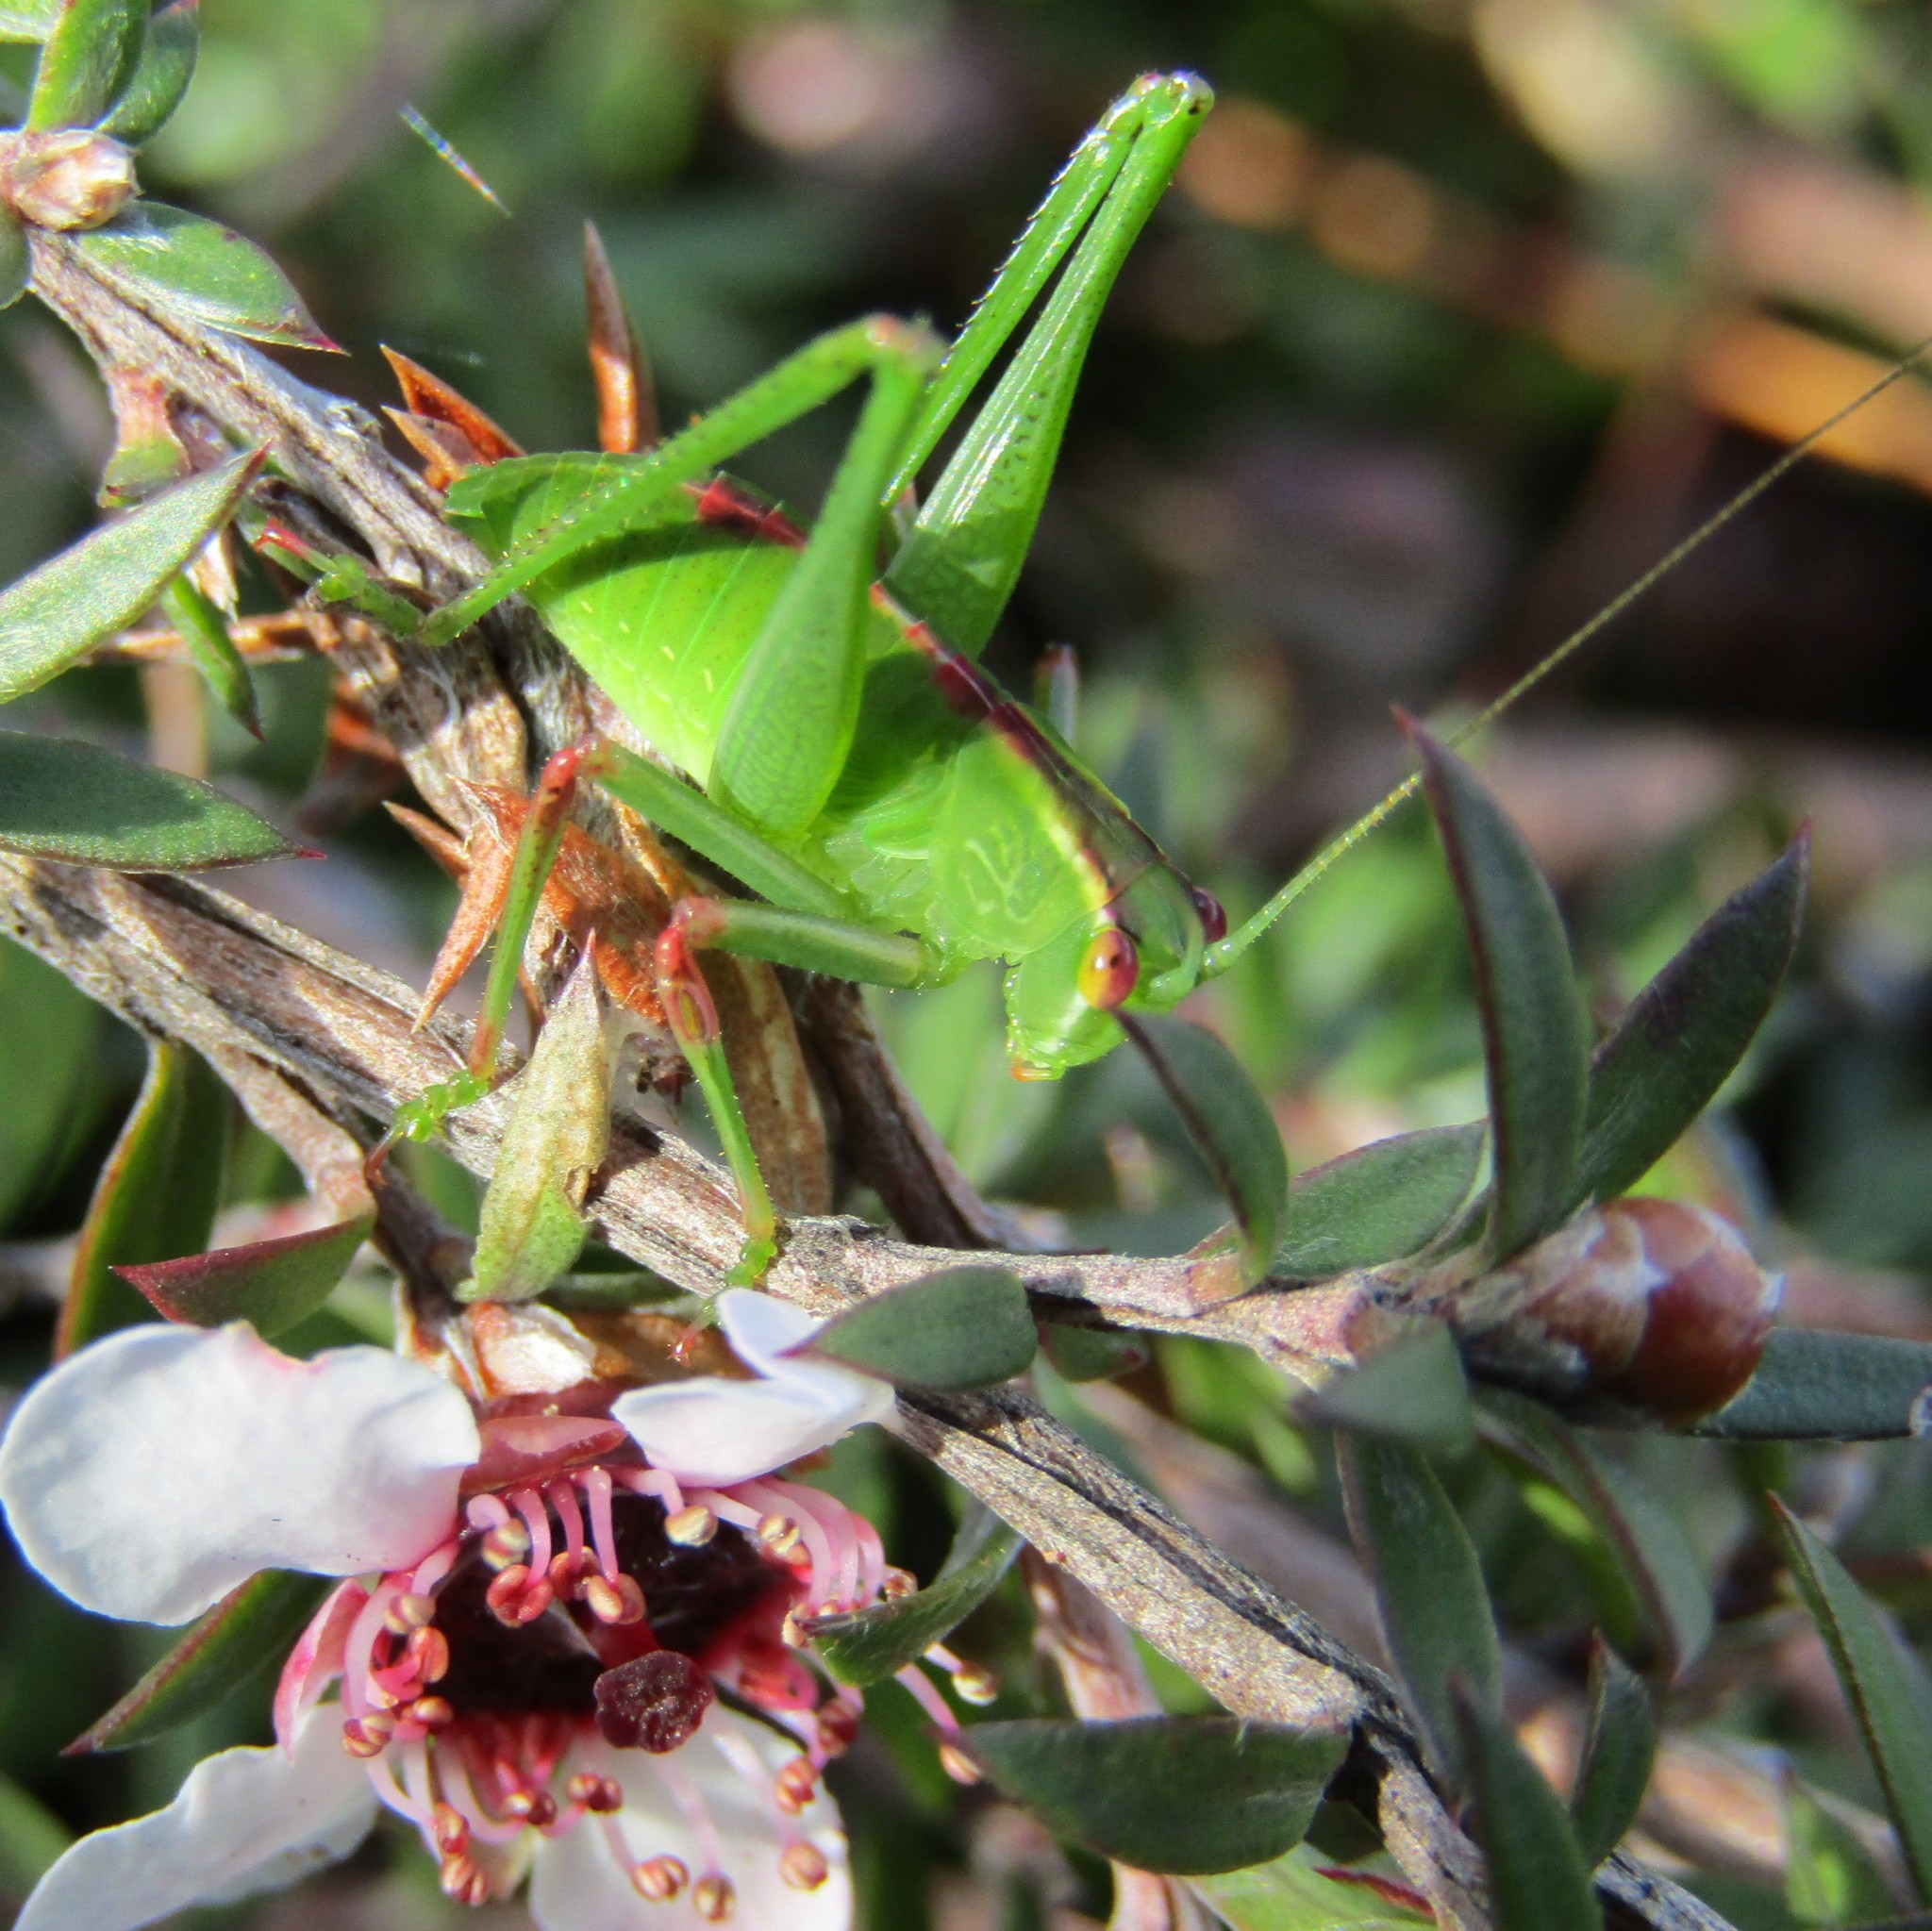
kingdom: Animalia
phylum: Arthropoda
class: Insecta
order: Orthoptera
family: Tettigoniidae
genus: Caedicia
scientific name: Caedicia simplex
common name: Common garden katydid
